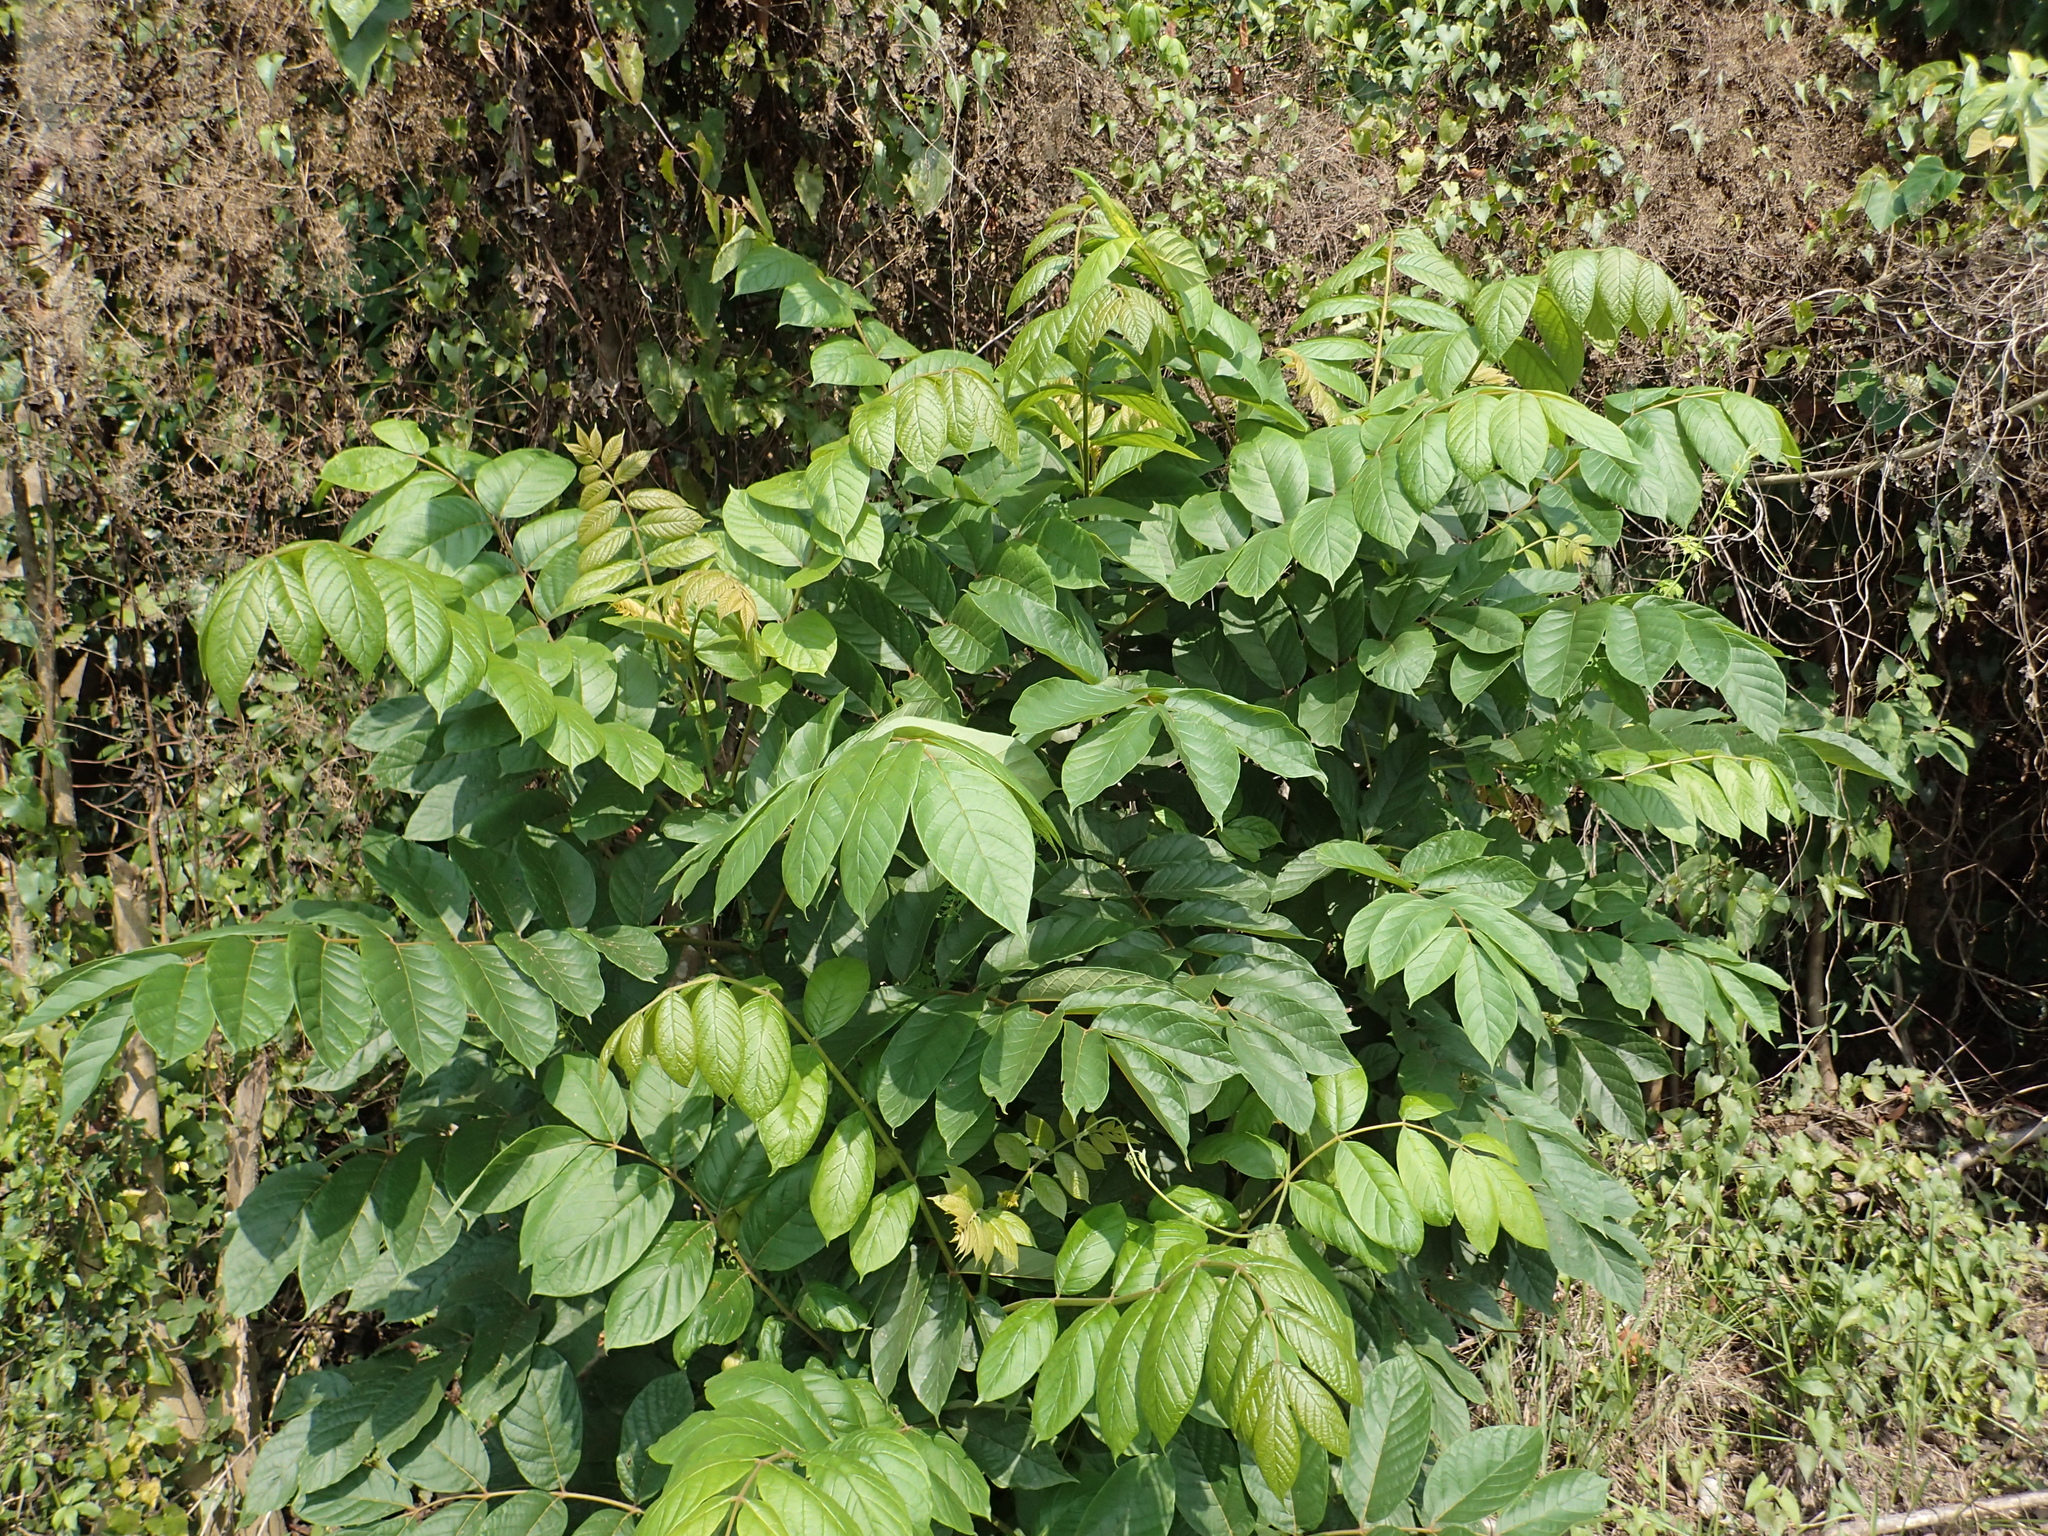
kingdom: Plantae
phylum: Tracheophyta
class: Magnoliopsida
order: Lamiales
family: Bignoniaceae
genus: Spathodea
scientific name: Spathodea campanulata
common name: African tuliptree
